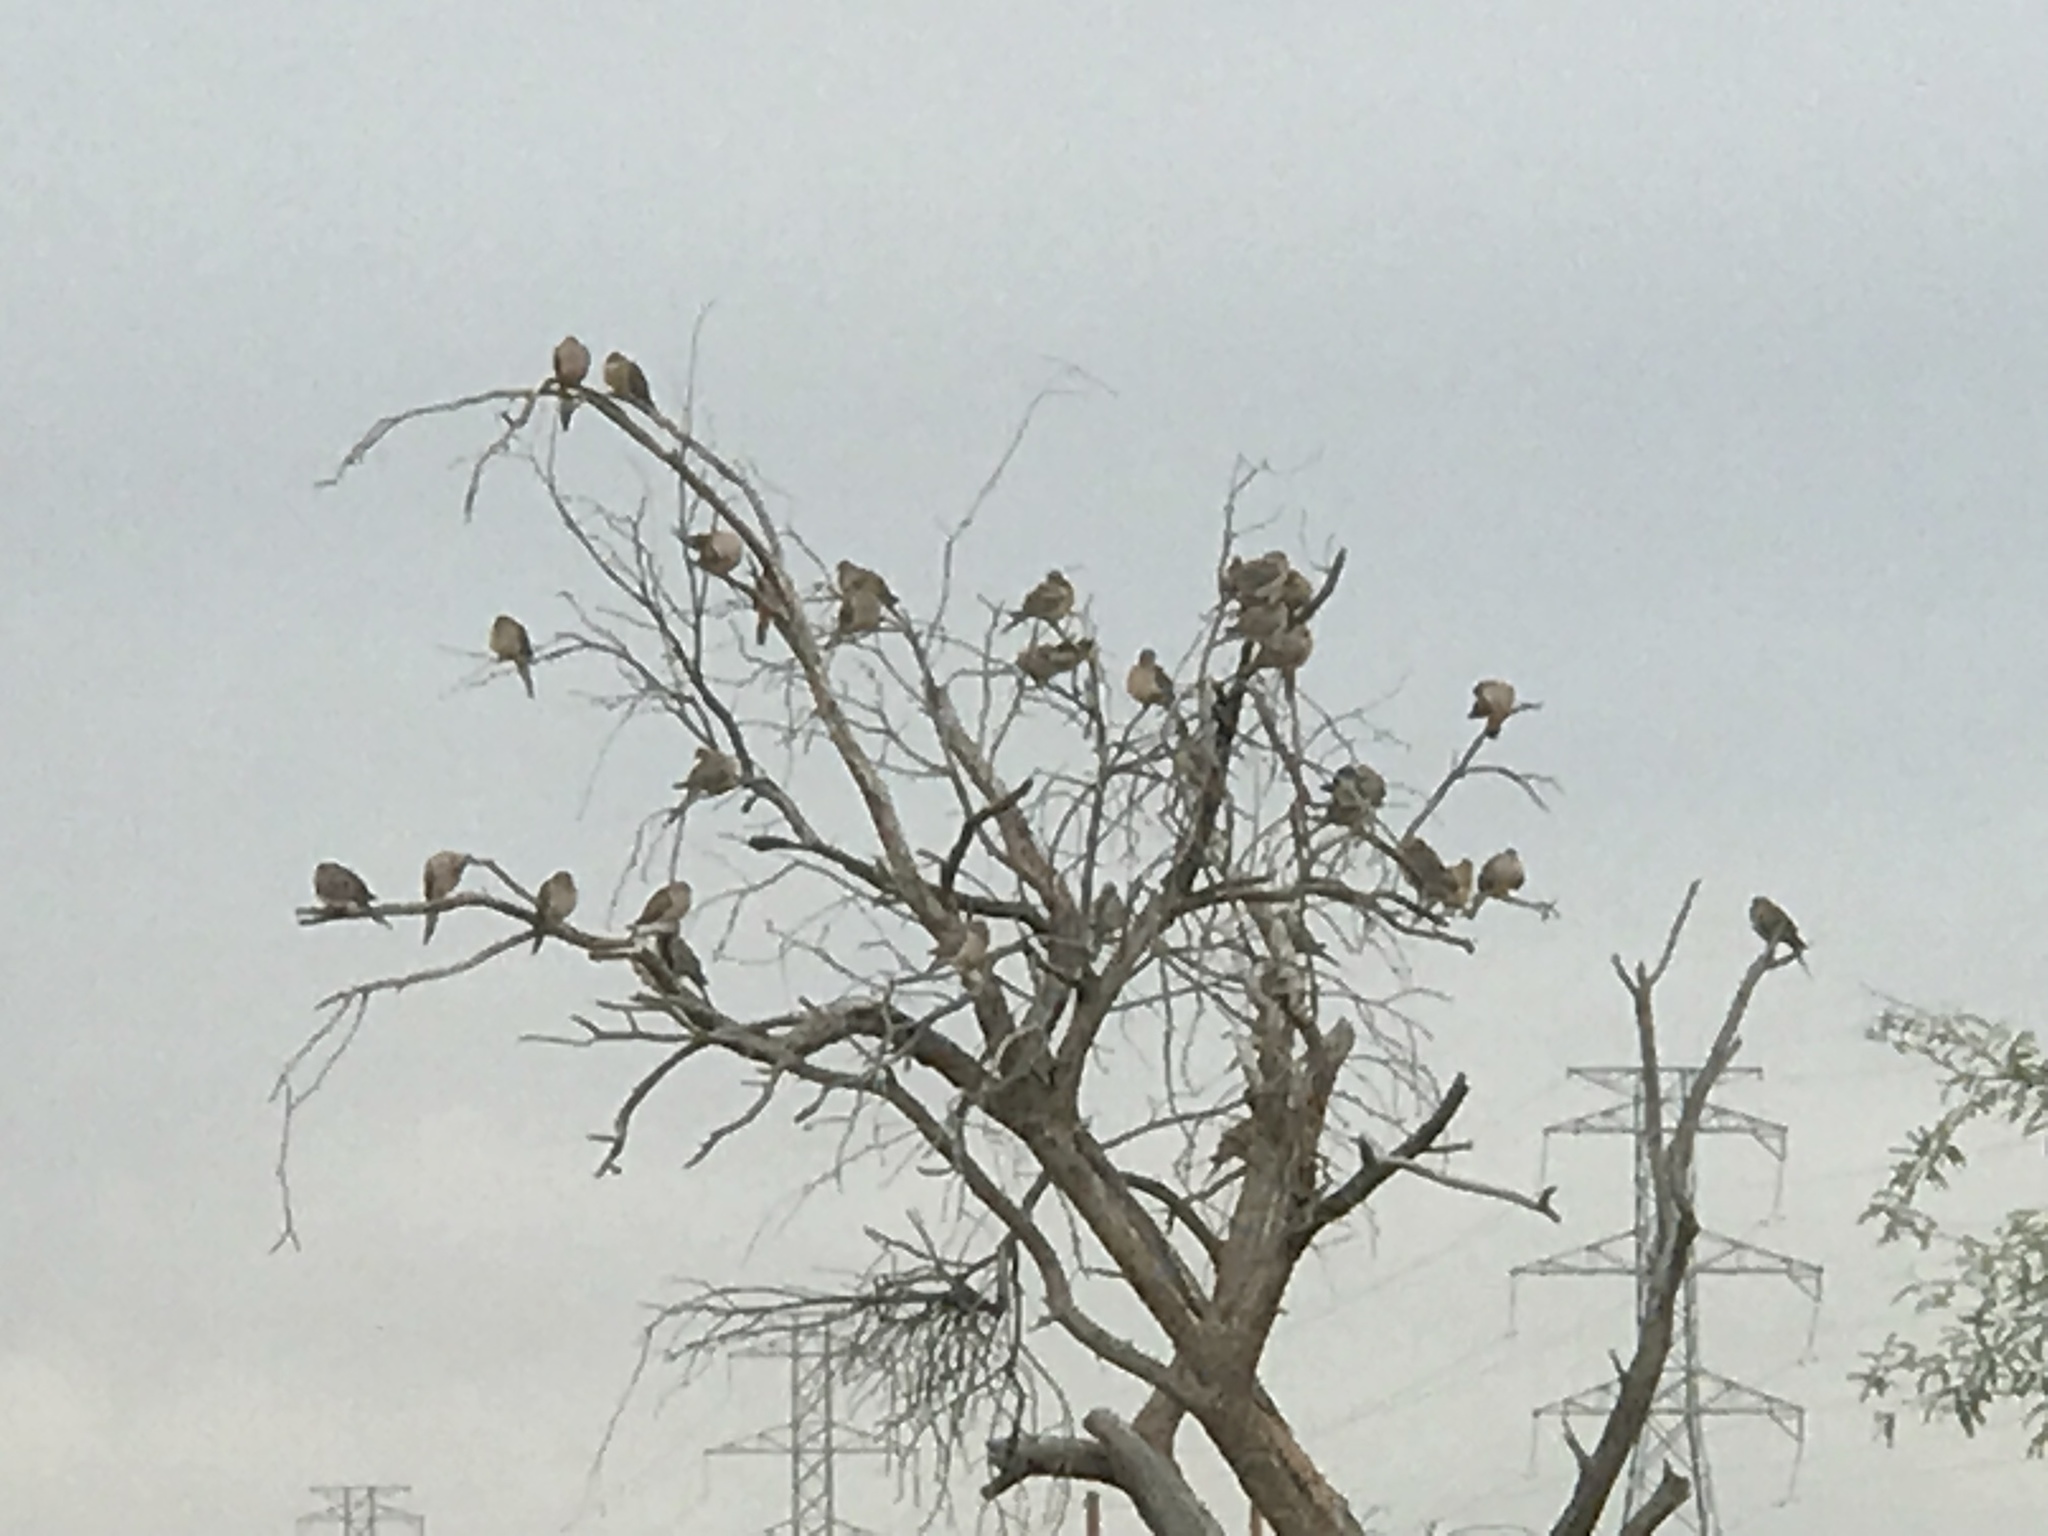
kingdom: Animalia
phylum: Chordata
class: Aves
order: Columbiformes
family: Columbidae
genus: Zenaida
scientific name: Zenaida macroura
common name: Mourning dove
